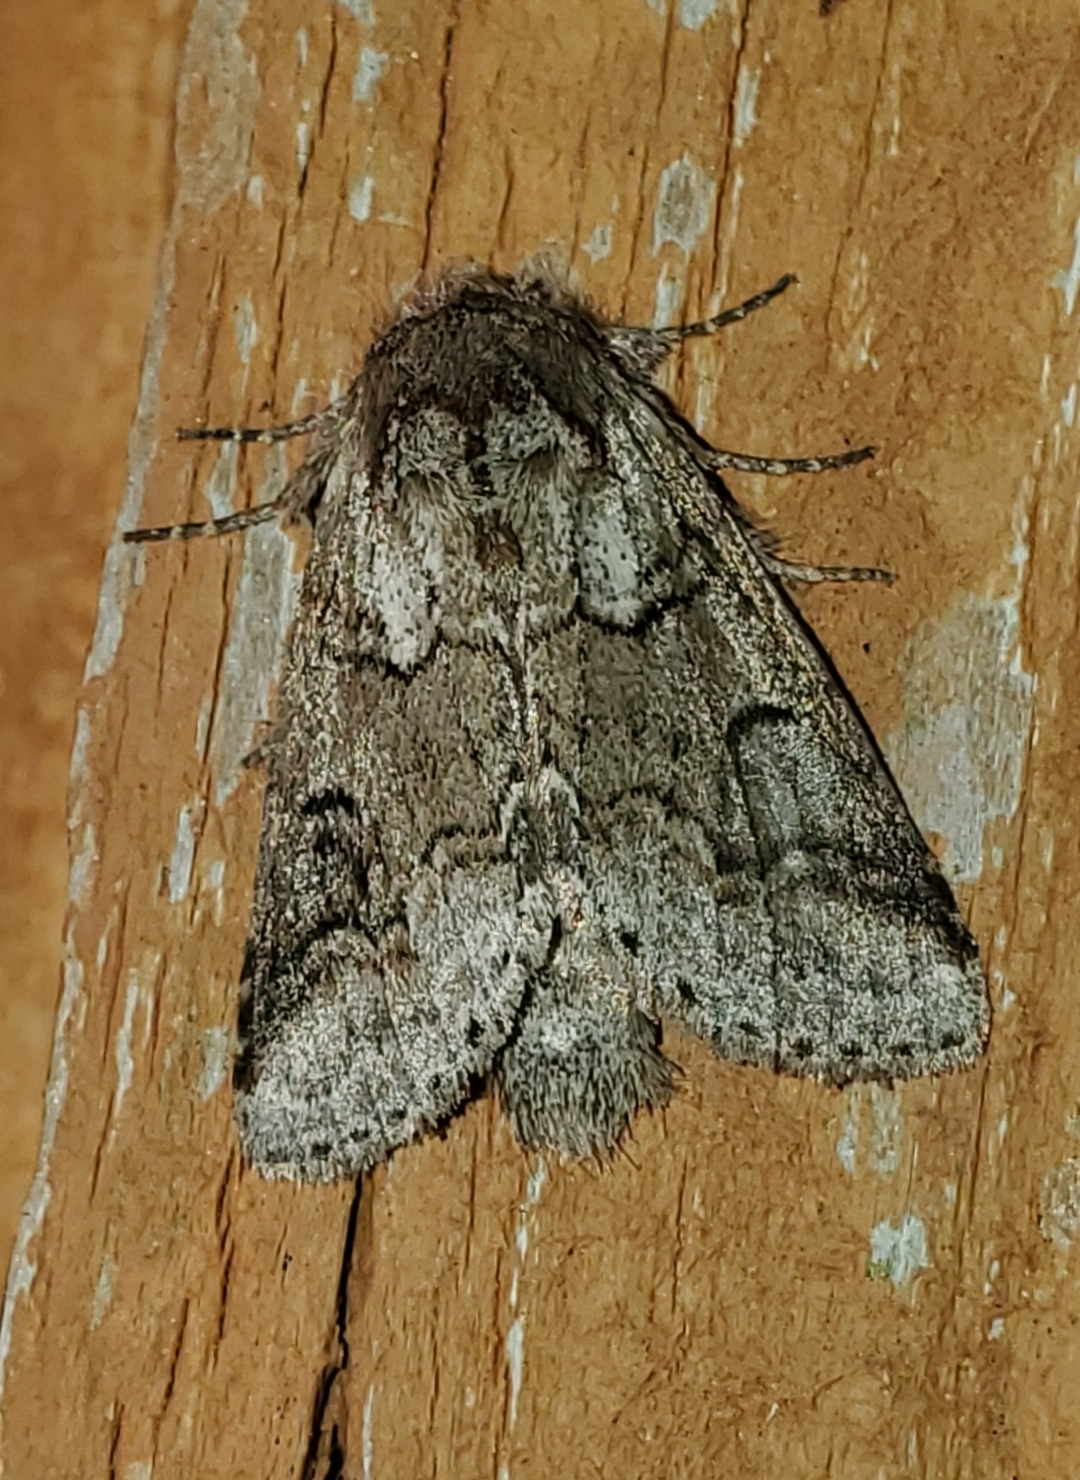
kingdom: Animalia
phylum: Arthropoda
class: Insecta
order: Lepidoptera
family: Notodontidae
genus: Lochmaeus
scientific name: Lochmaeus bilineata
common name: Double-lined prominent
